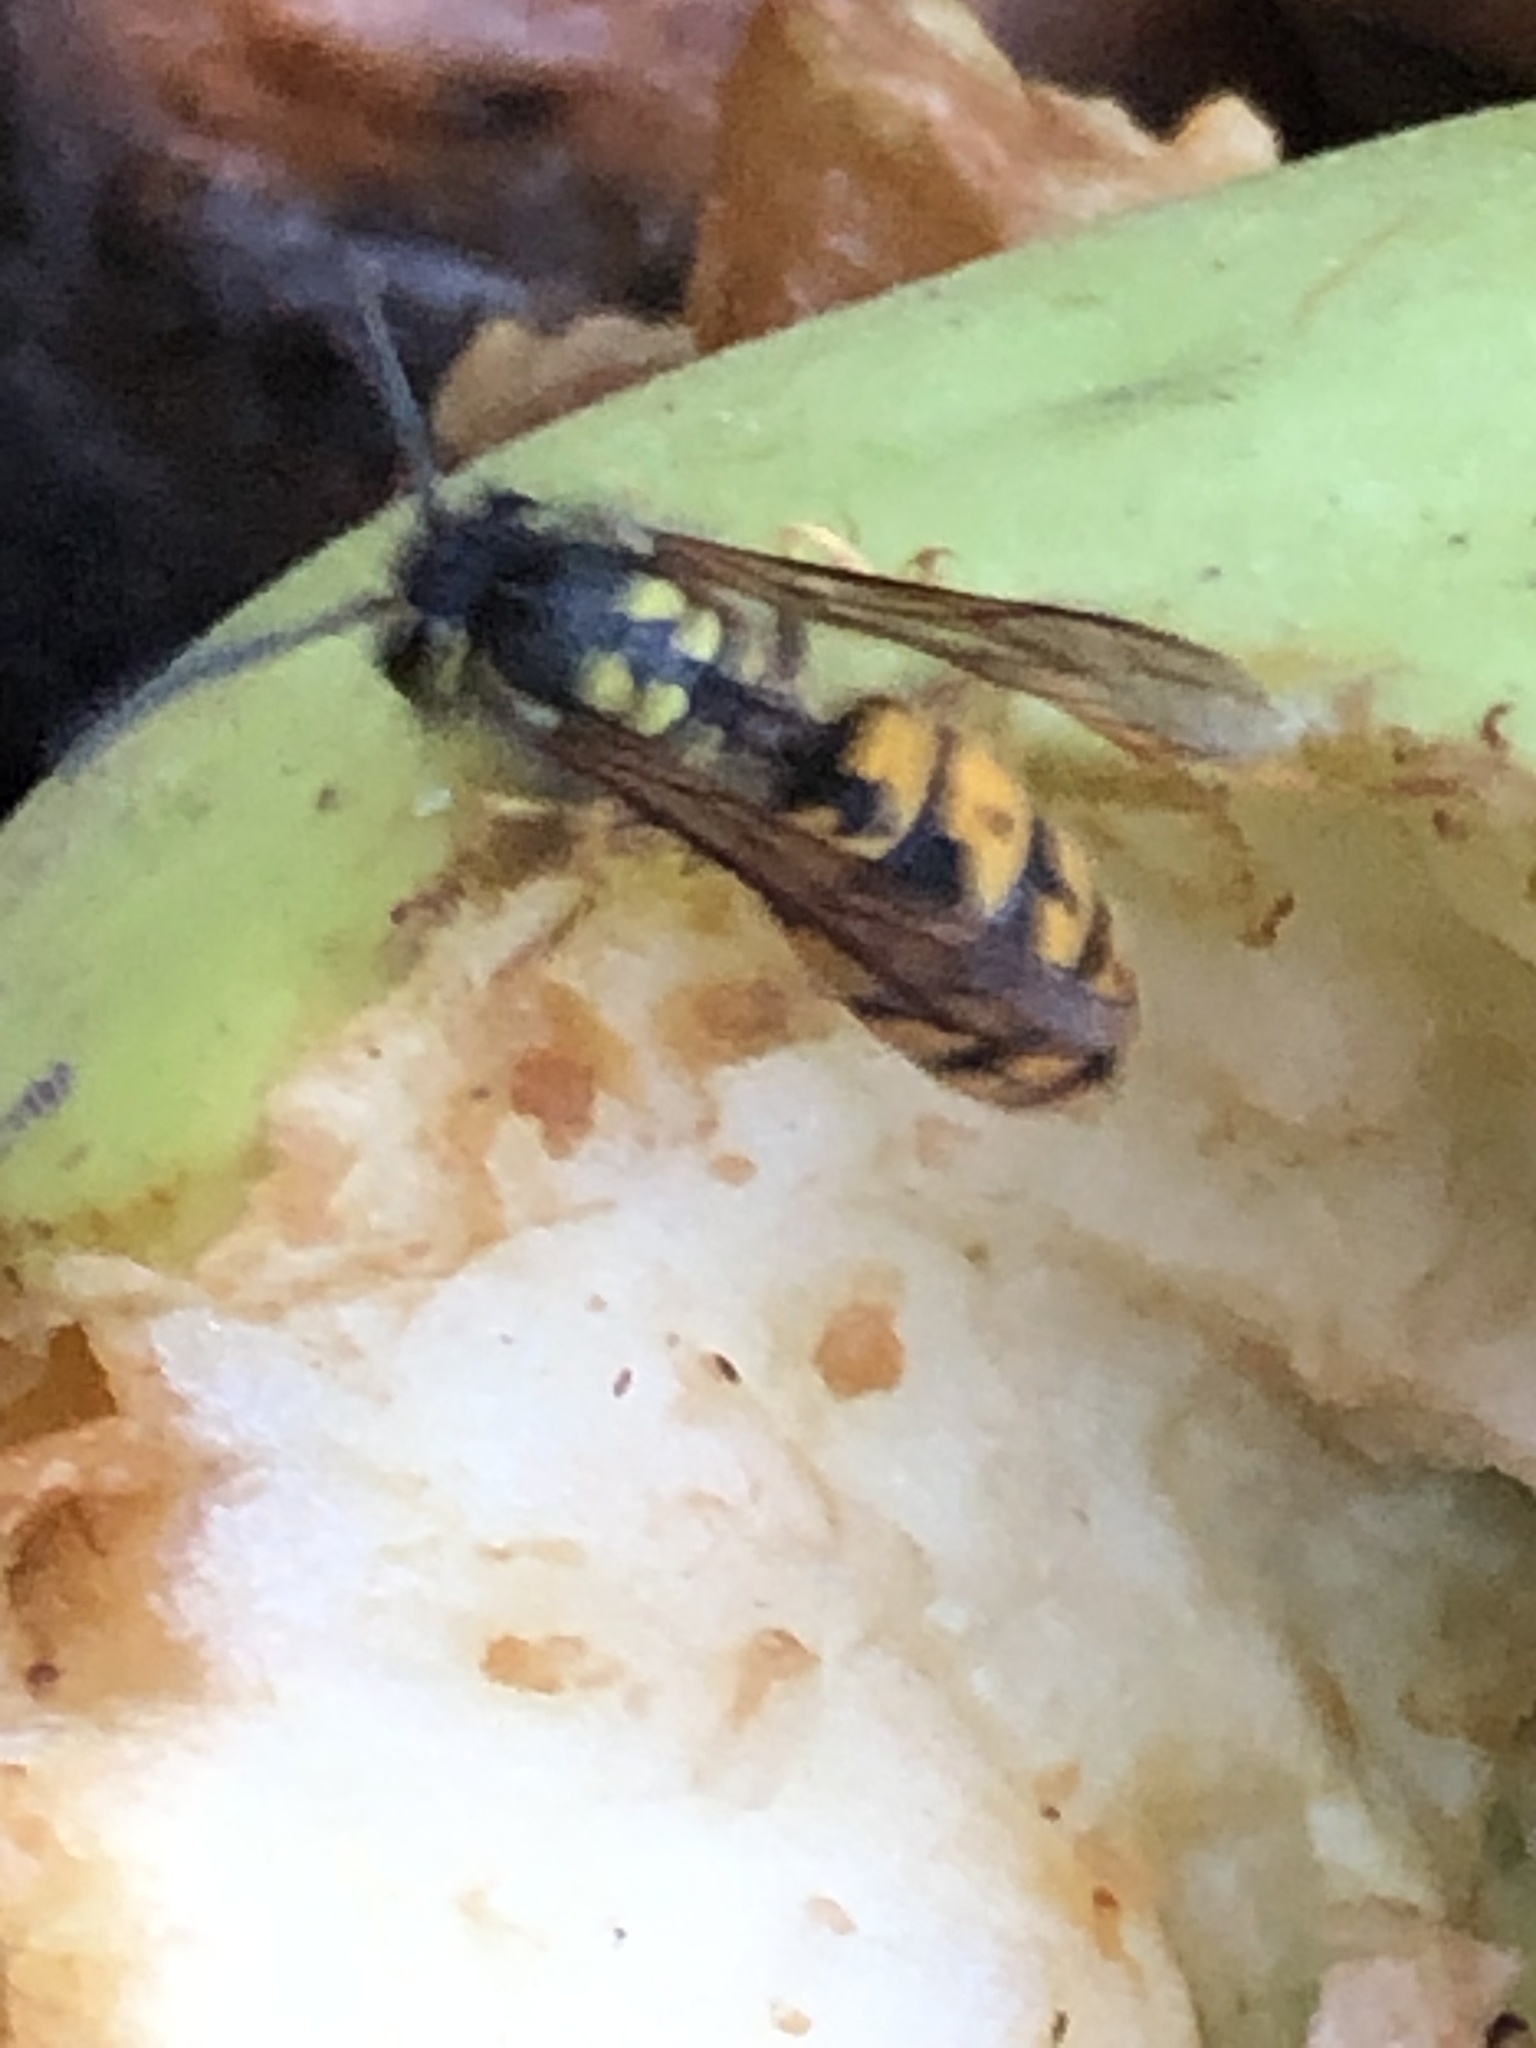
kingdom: Animalia
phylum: Arthropoda
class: Insecta
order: Hymenoptera
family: Vespidae
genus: Vespula
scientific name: Vespula germanica
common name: German wasp
